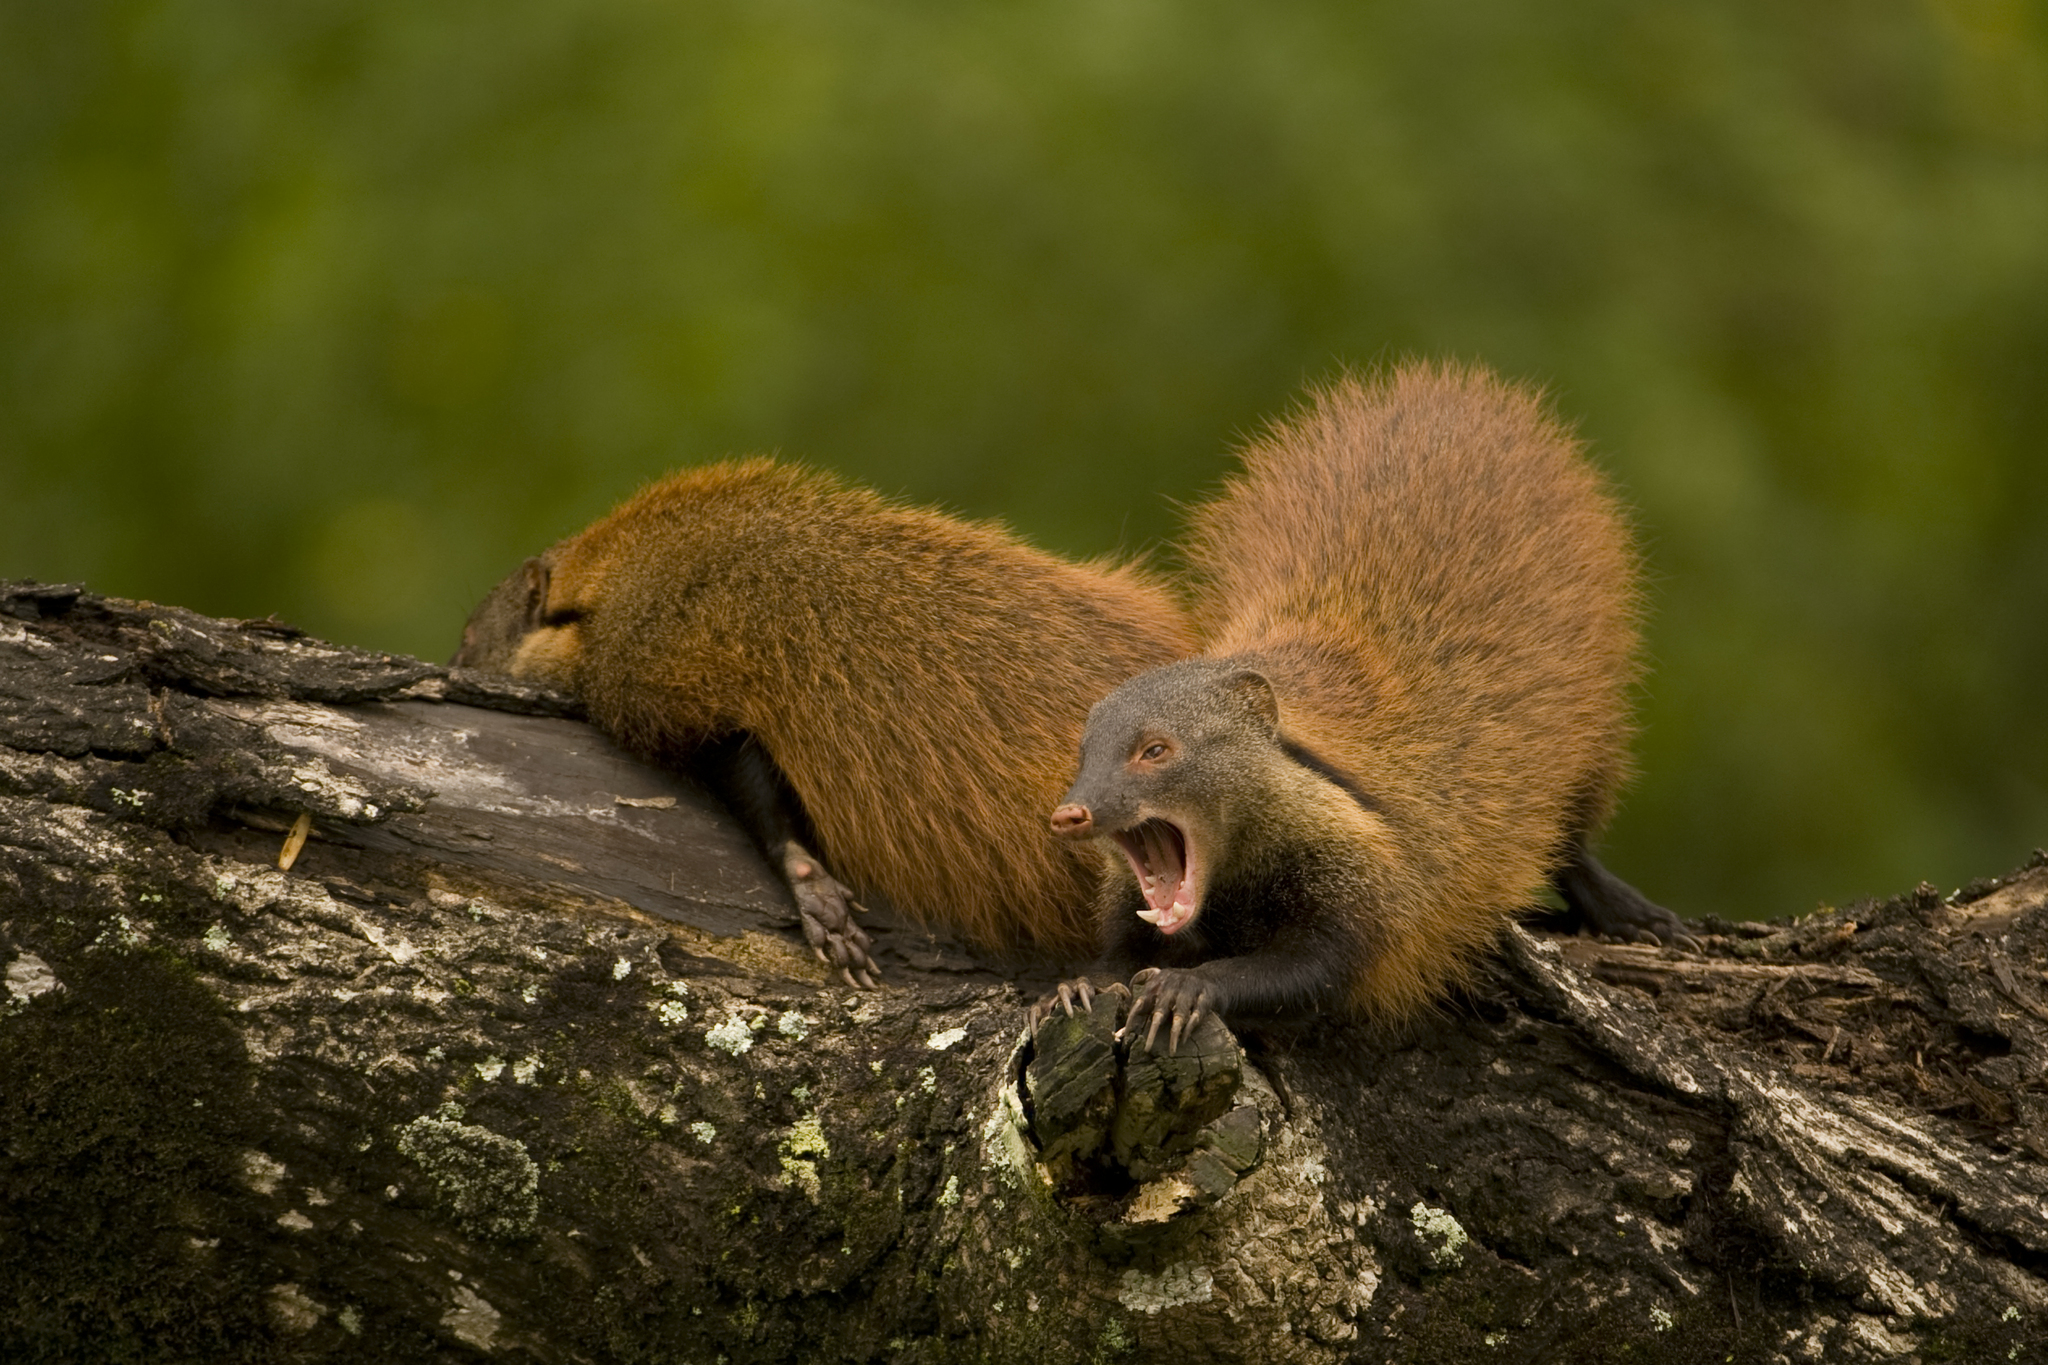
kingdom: Animalia
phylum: Chordata
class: Mammalia
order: Carnivora
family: Herpestidae
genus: Herpestes
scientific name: Herpestes vitticollis
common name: Stripe-necked mongoose
